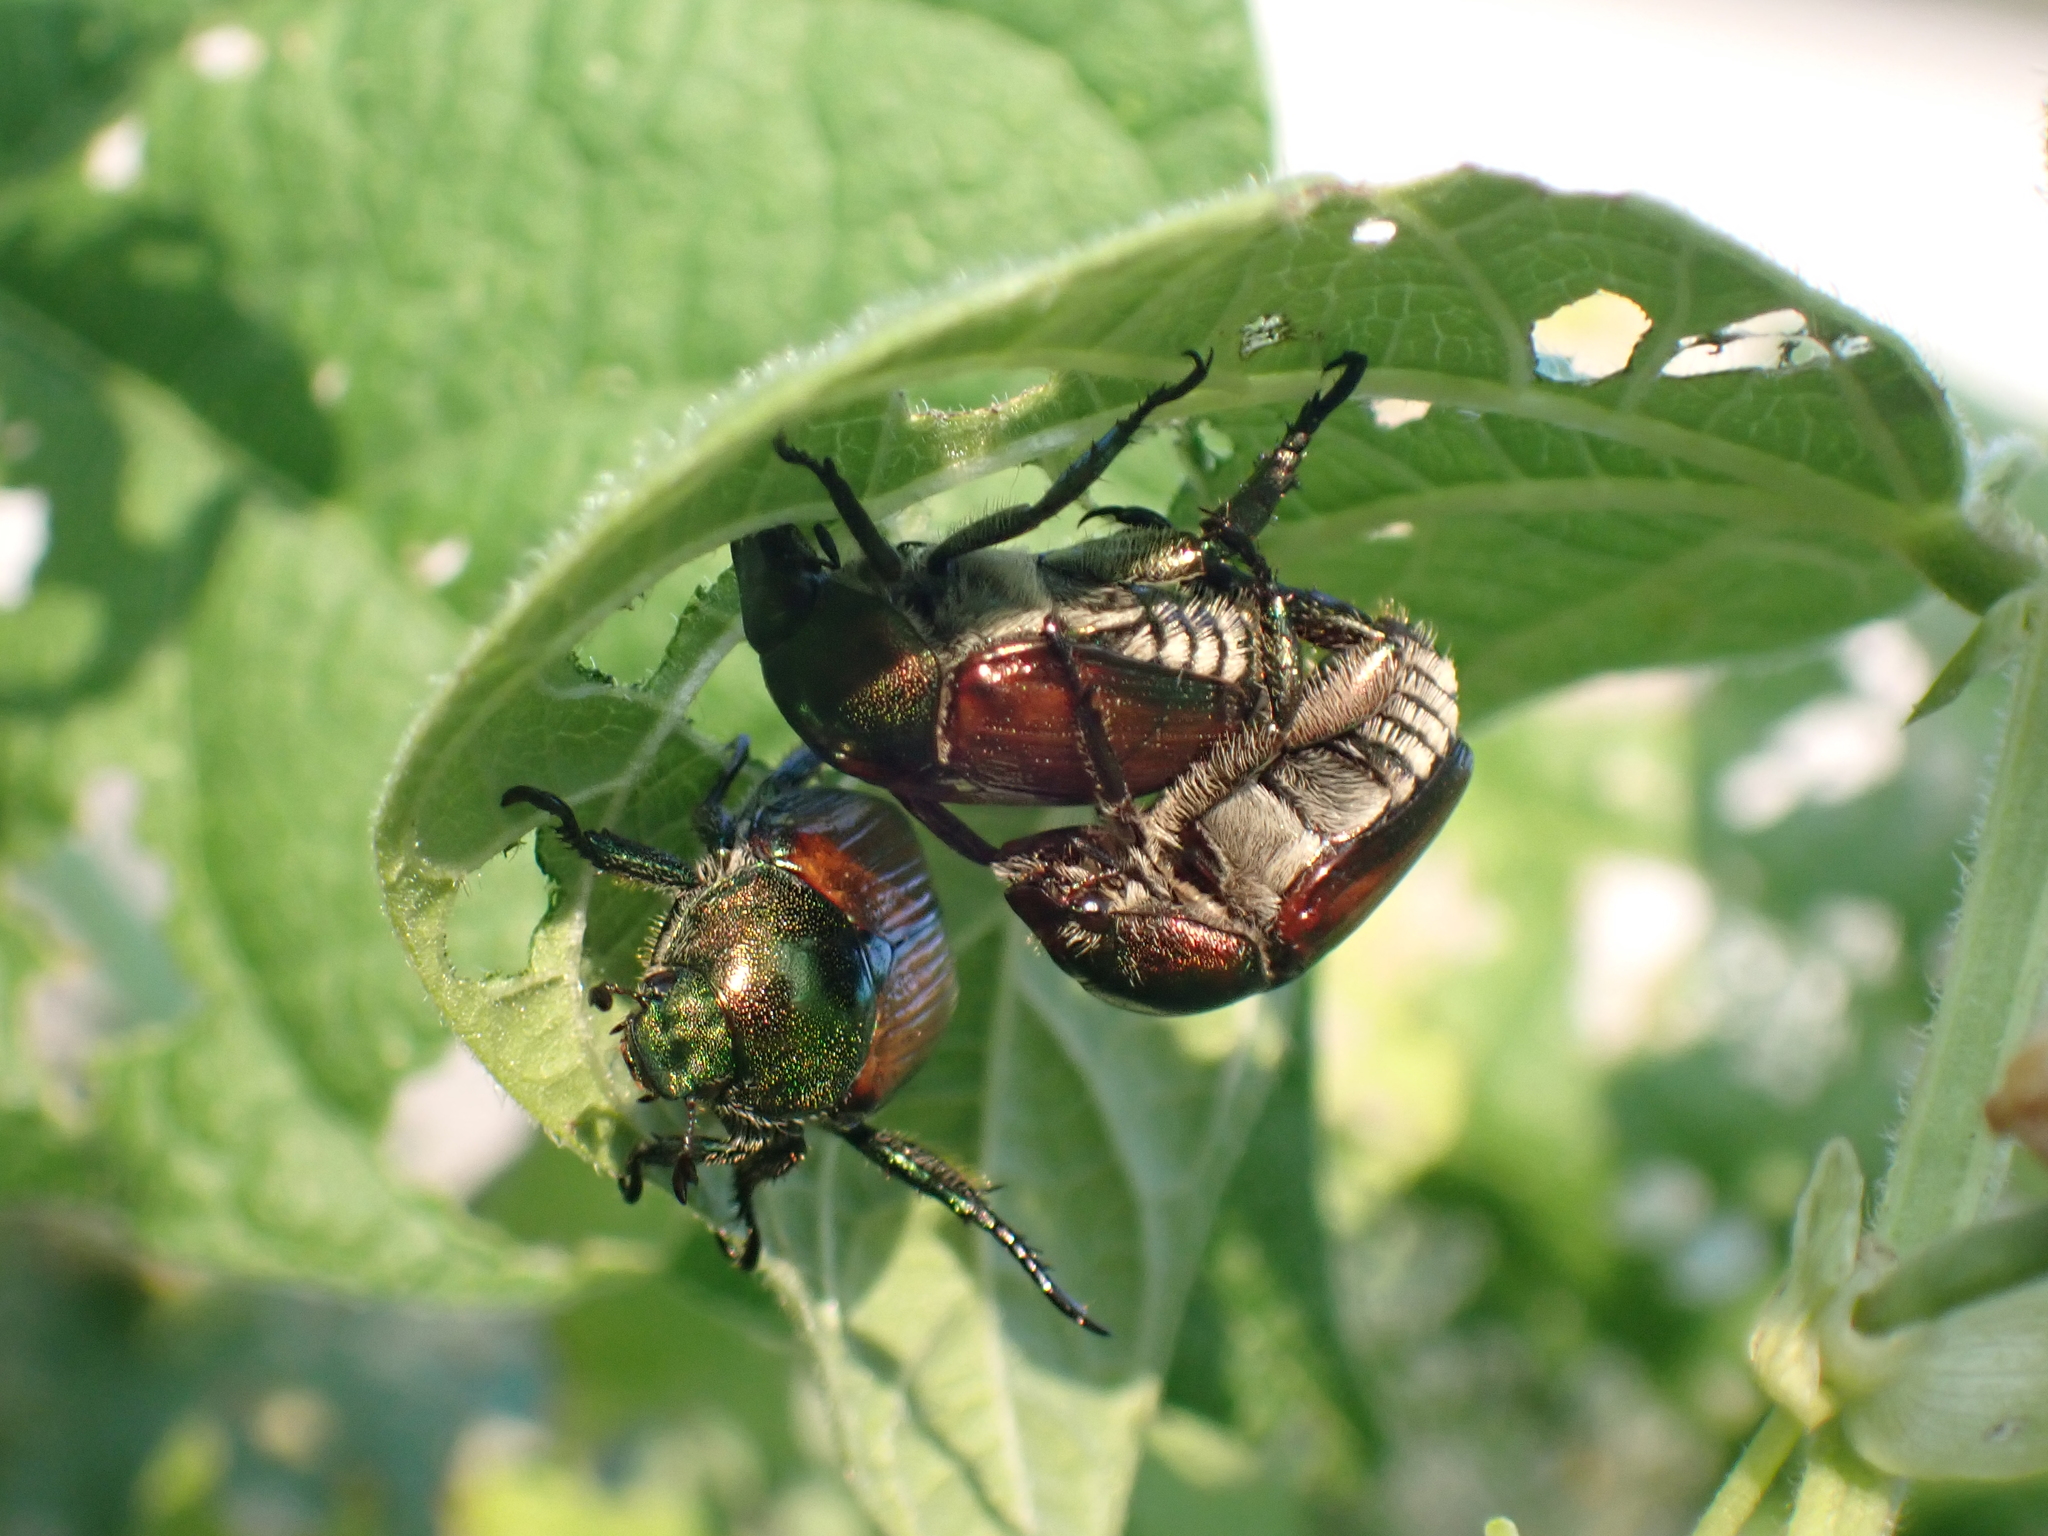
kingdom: Animalia
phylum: Arthropoda
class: Insecta
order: Coleoptera
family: Scarabaeidae
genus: Popillia
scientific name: Popillia japonica
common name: Japanese beetle
